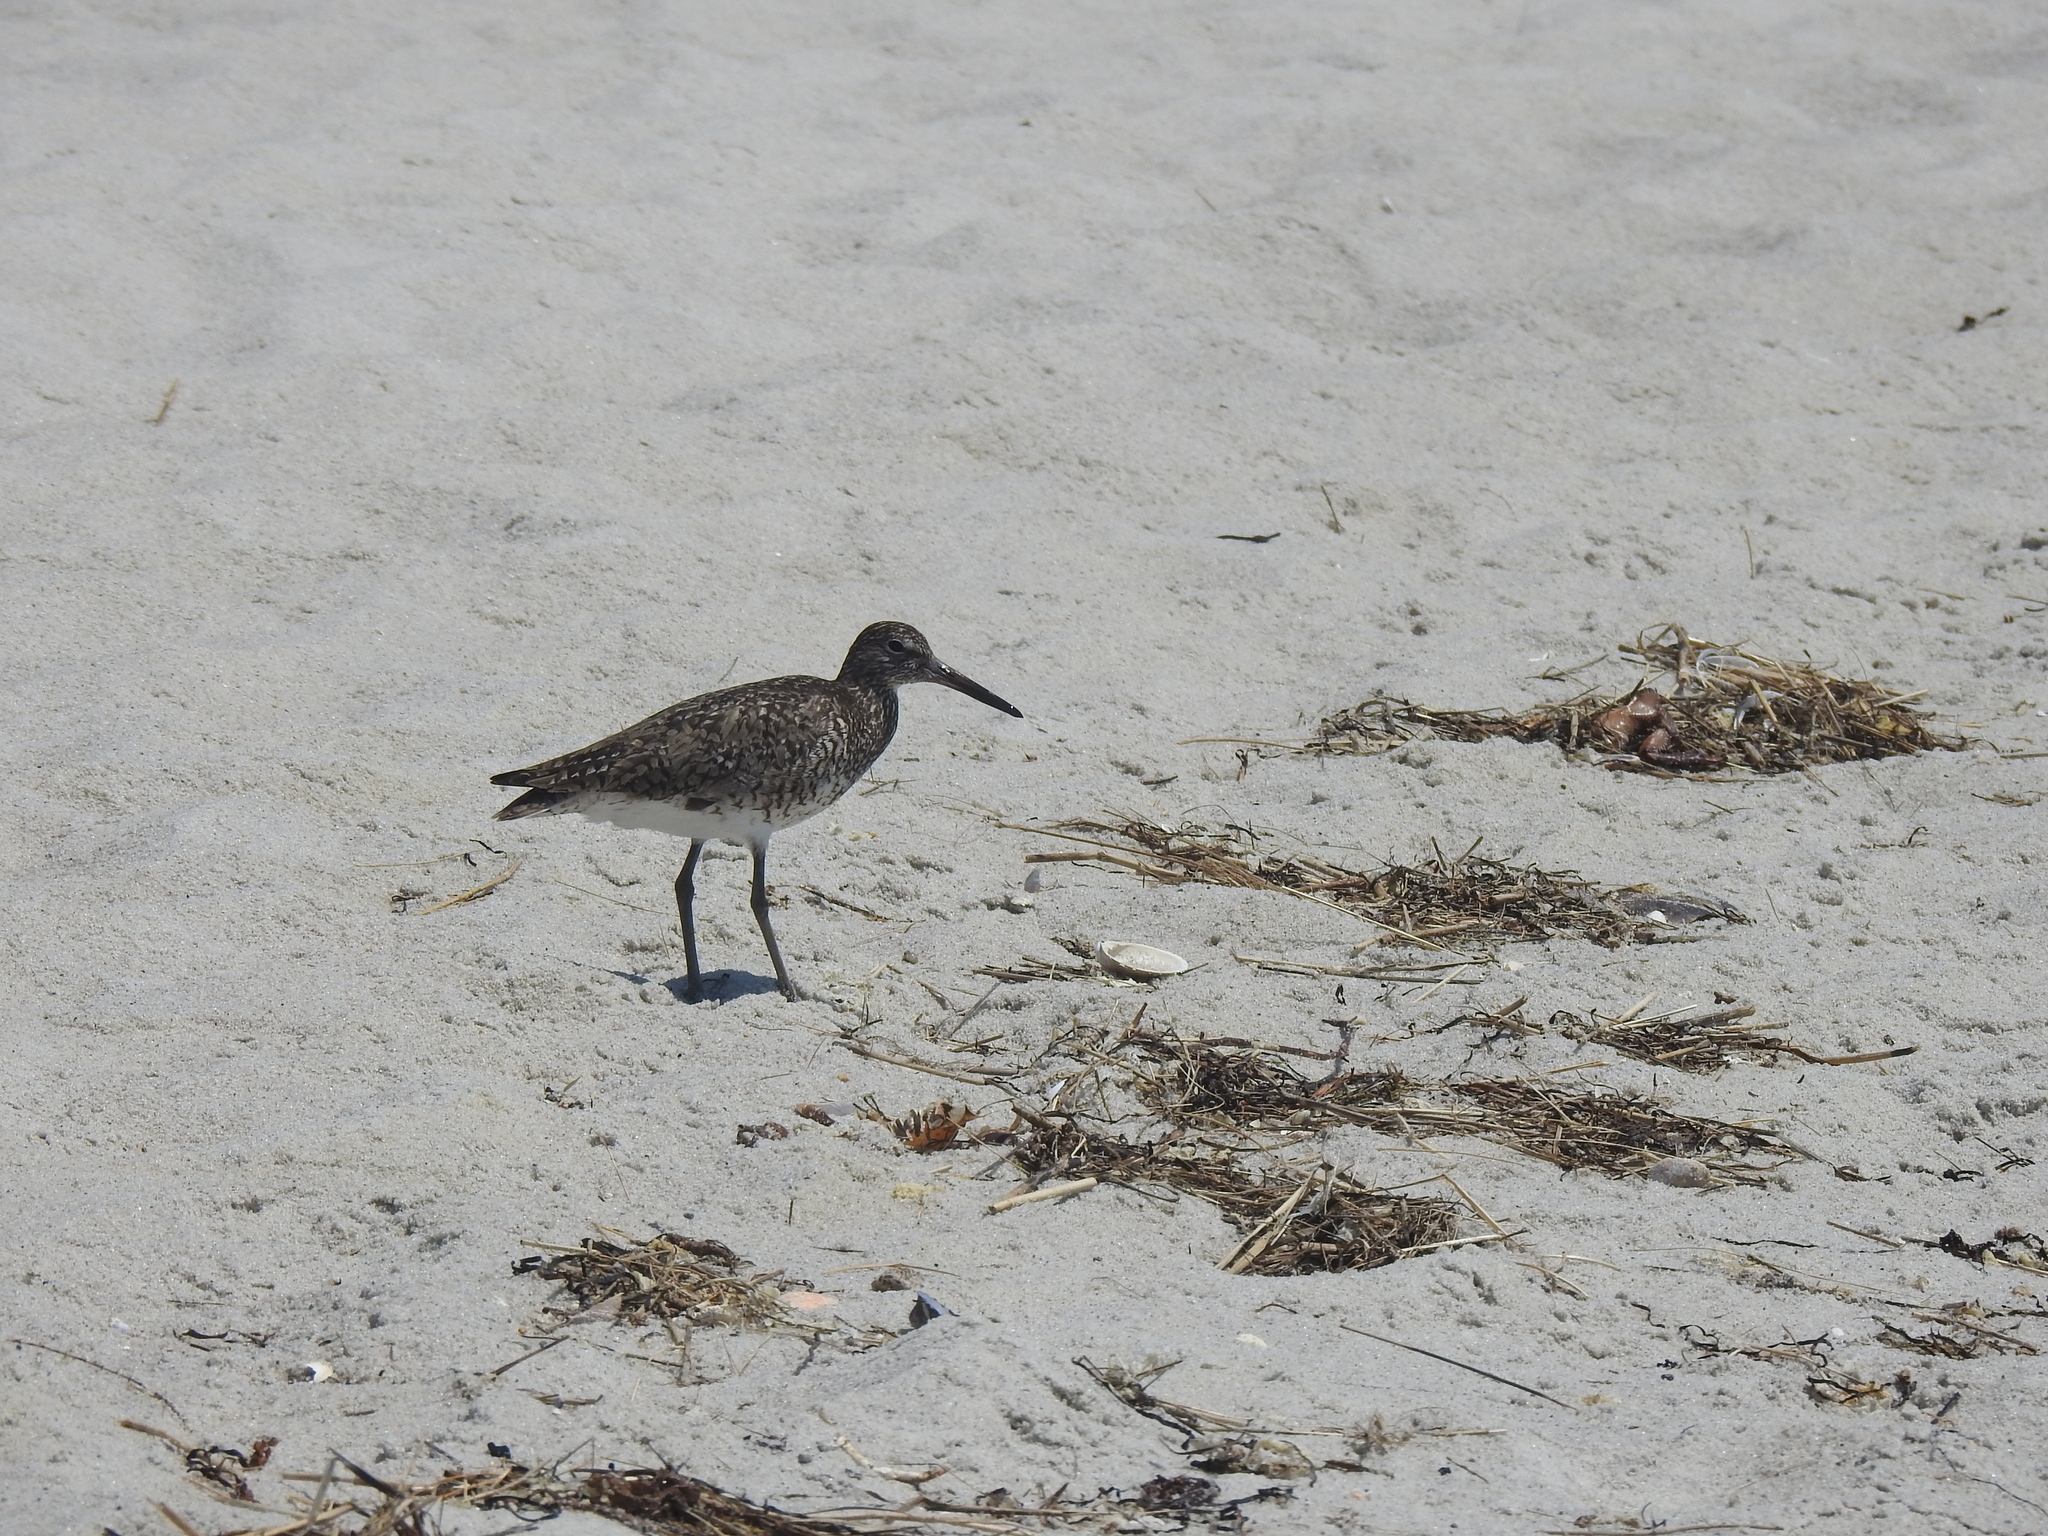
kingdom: Animalia
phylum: Chordata
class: Aves
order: Charadriiformes
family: Scolopacidae
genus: Tringa
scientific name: Tringa semipalmata
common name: Willet
